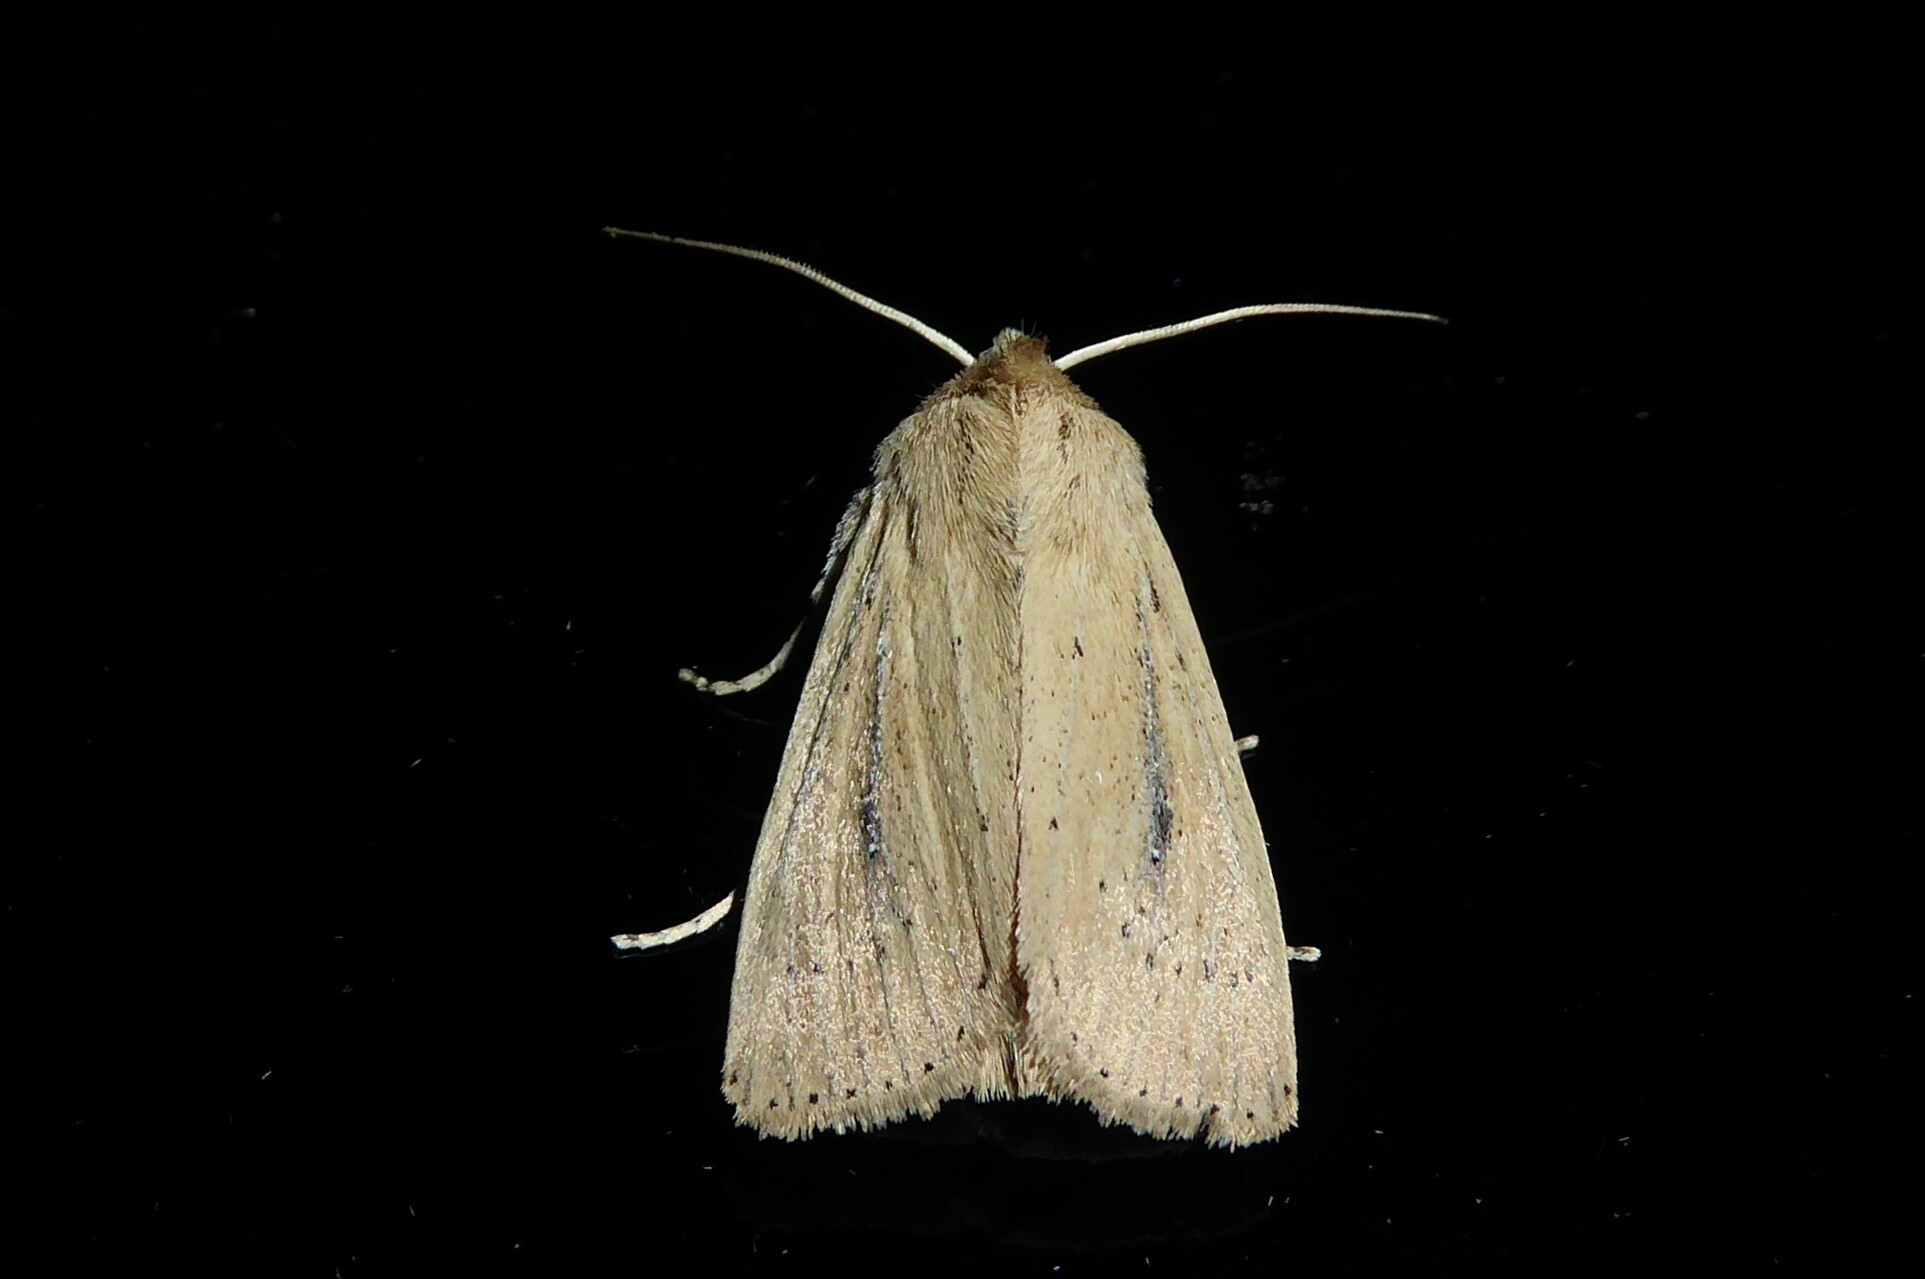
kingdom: Animalia
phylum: Arthropoda
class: Insecta
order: Lepidoptera
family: Noctuidae
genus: Ichneutica
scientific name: Ichneutica
